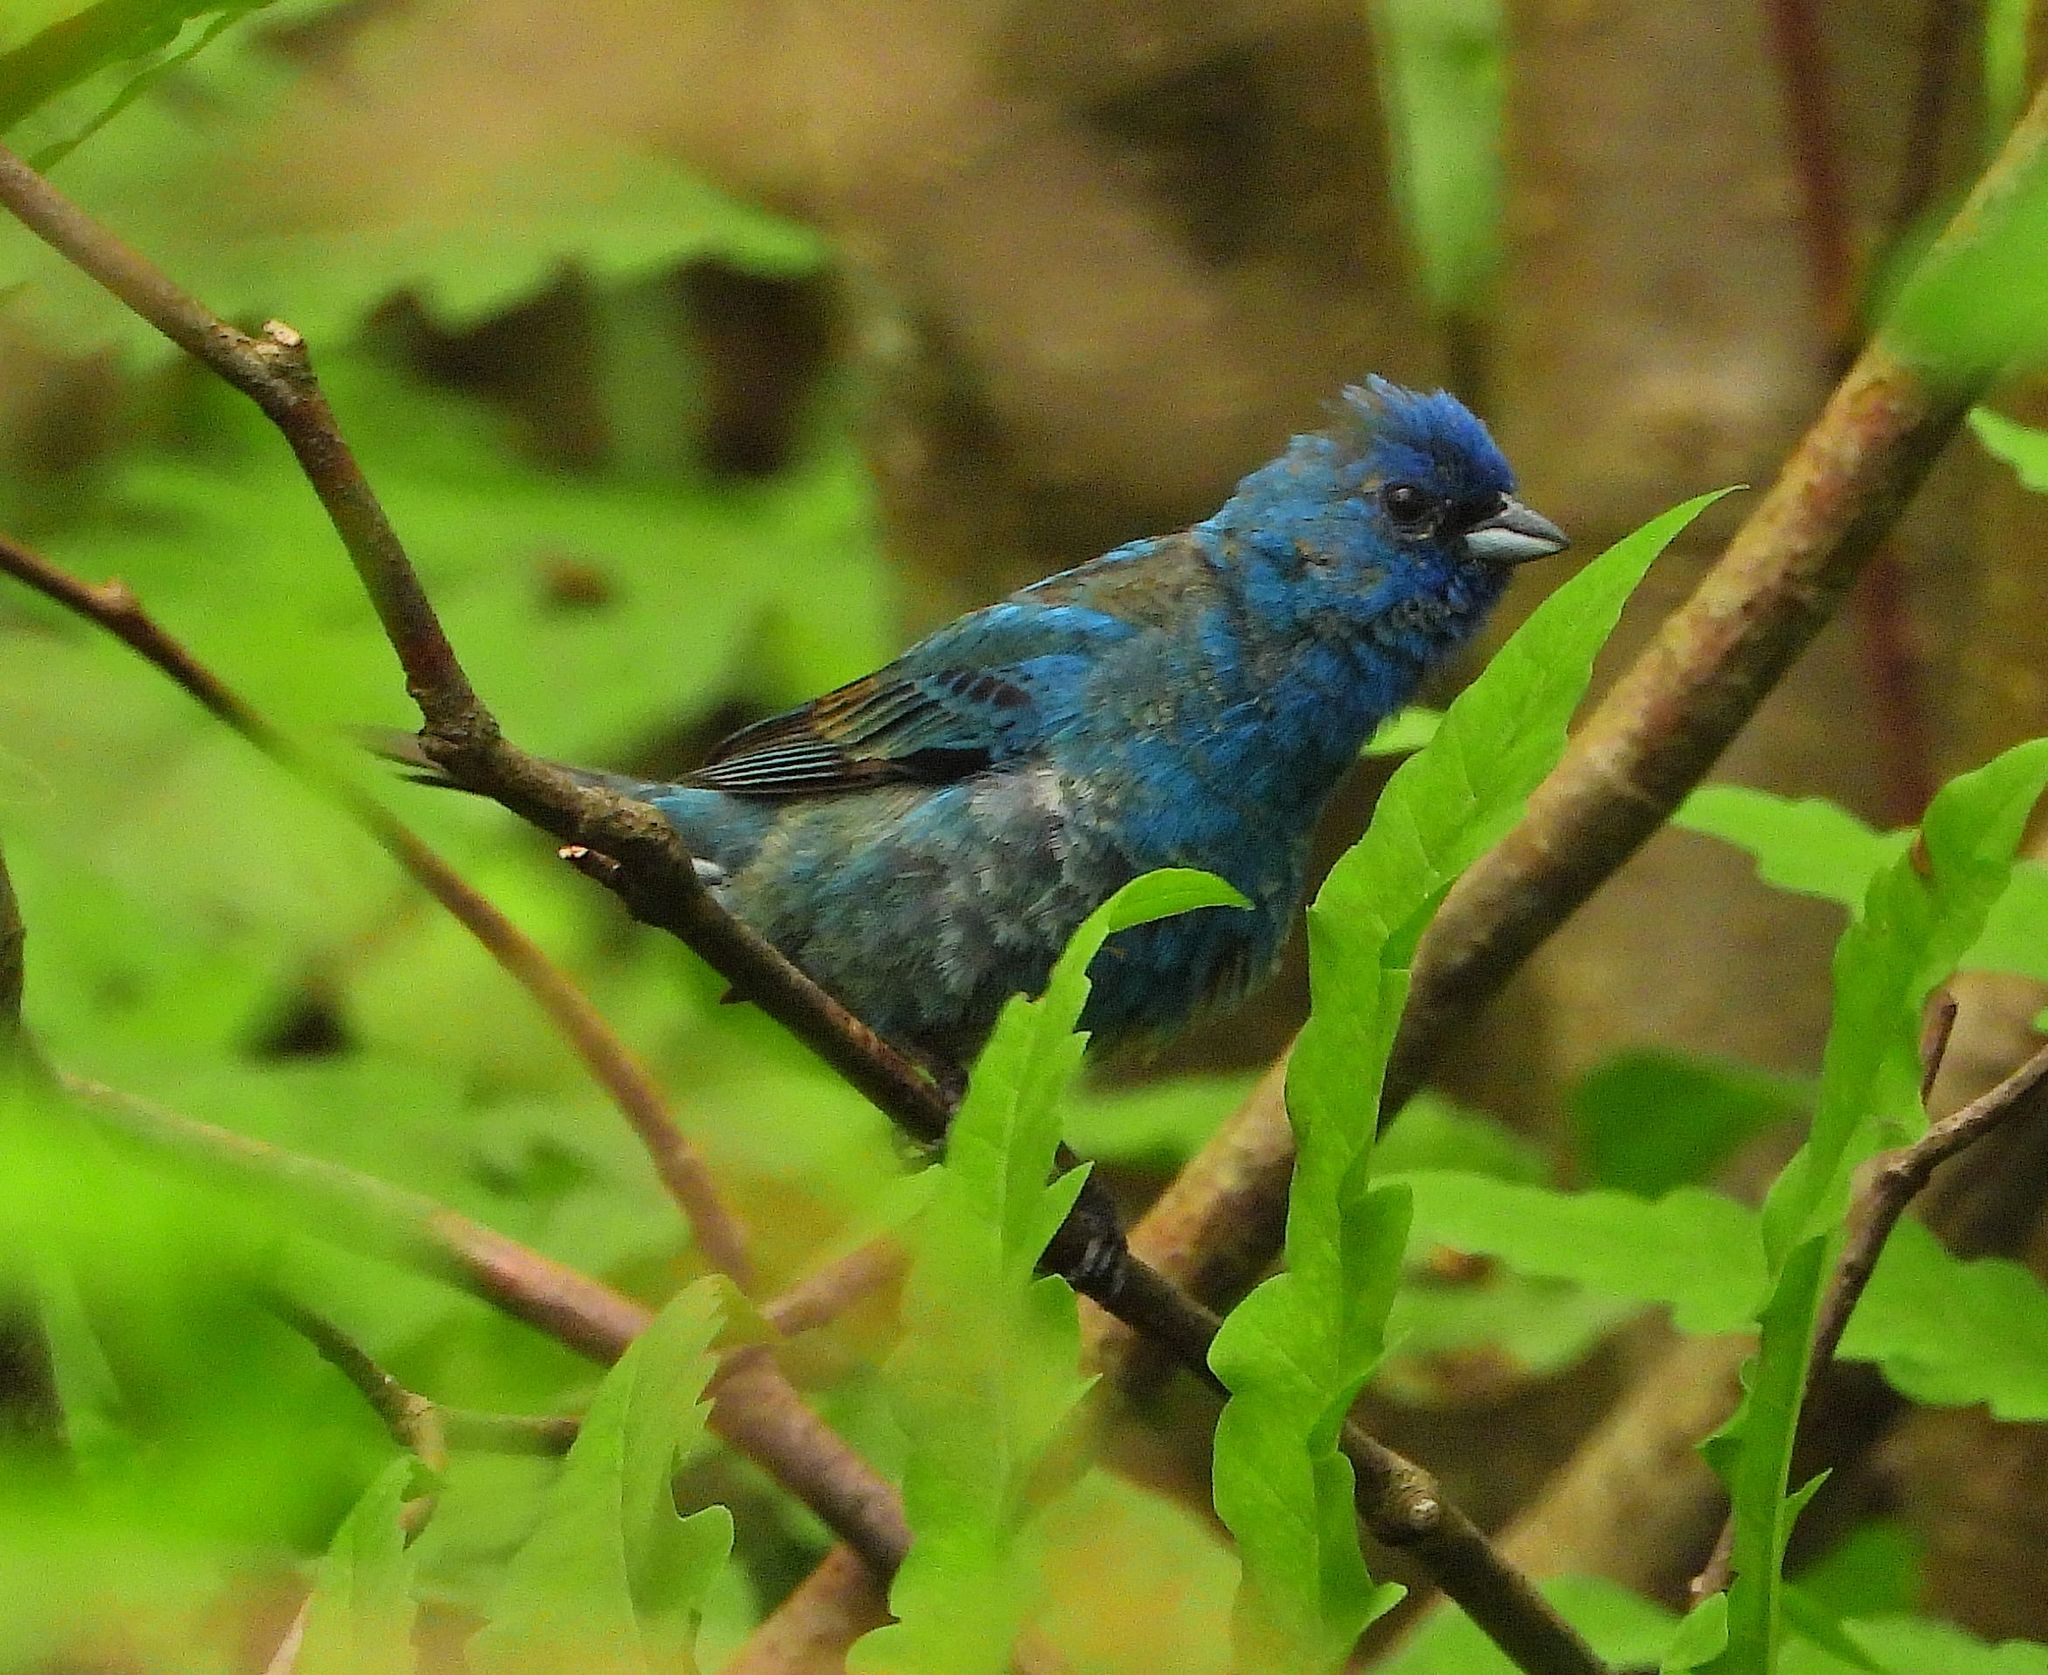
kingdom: Animalia
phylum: Chordata
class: Aves
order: Passeriformes
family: Cardinalidae
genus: Passerina
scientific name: Passerina cyanea
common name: Indigo bunting
